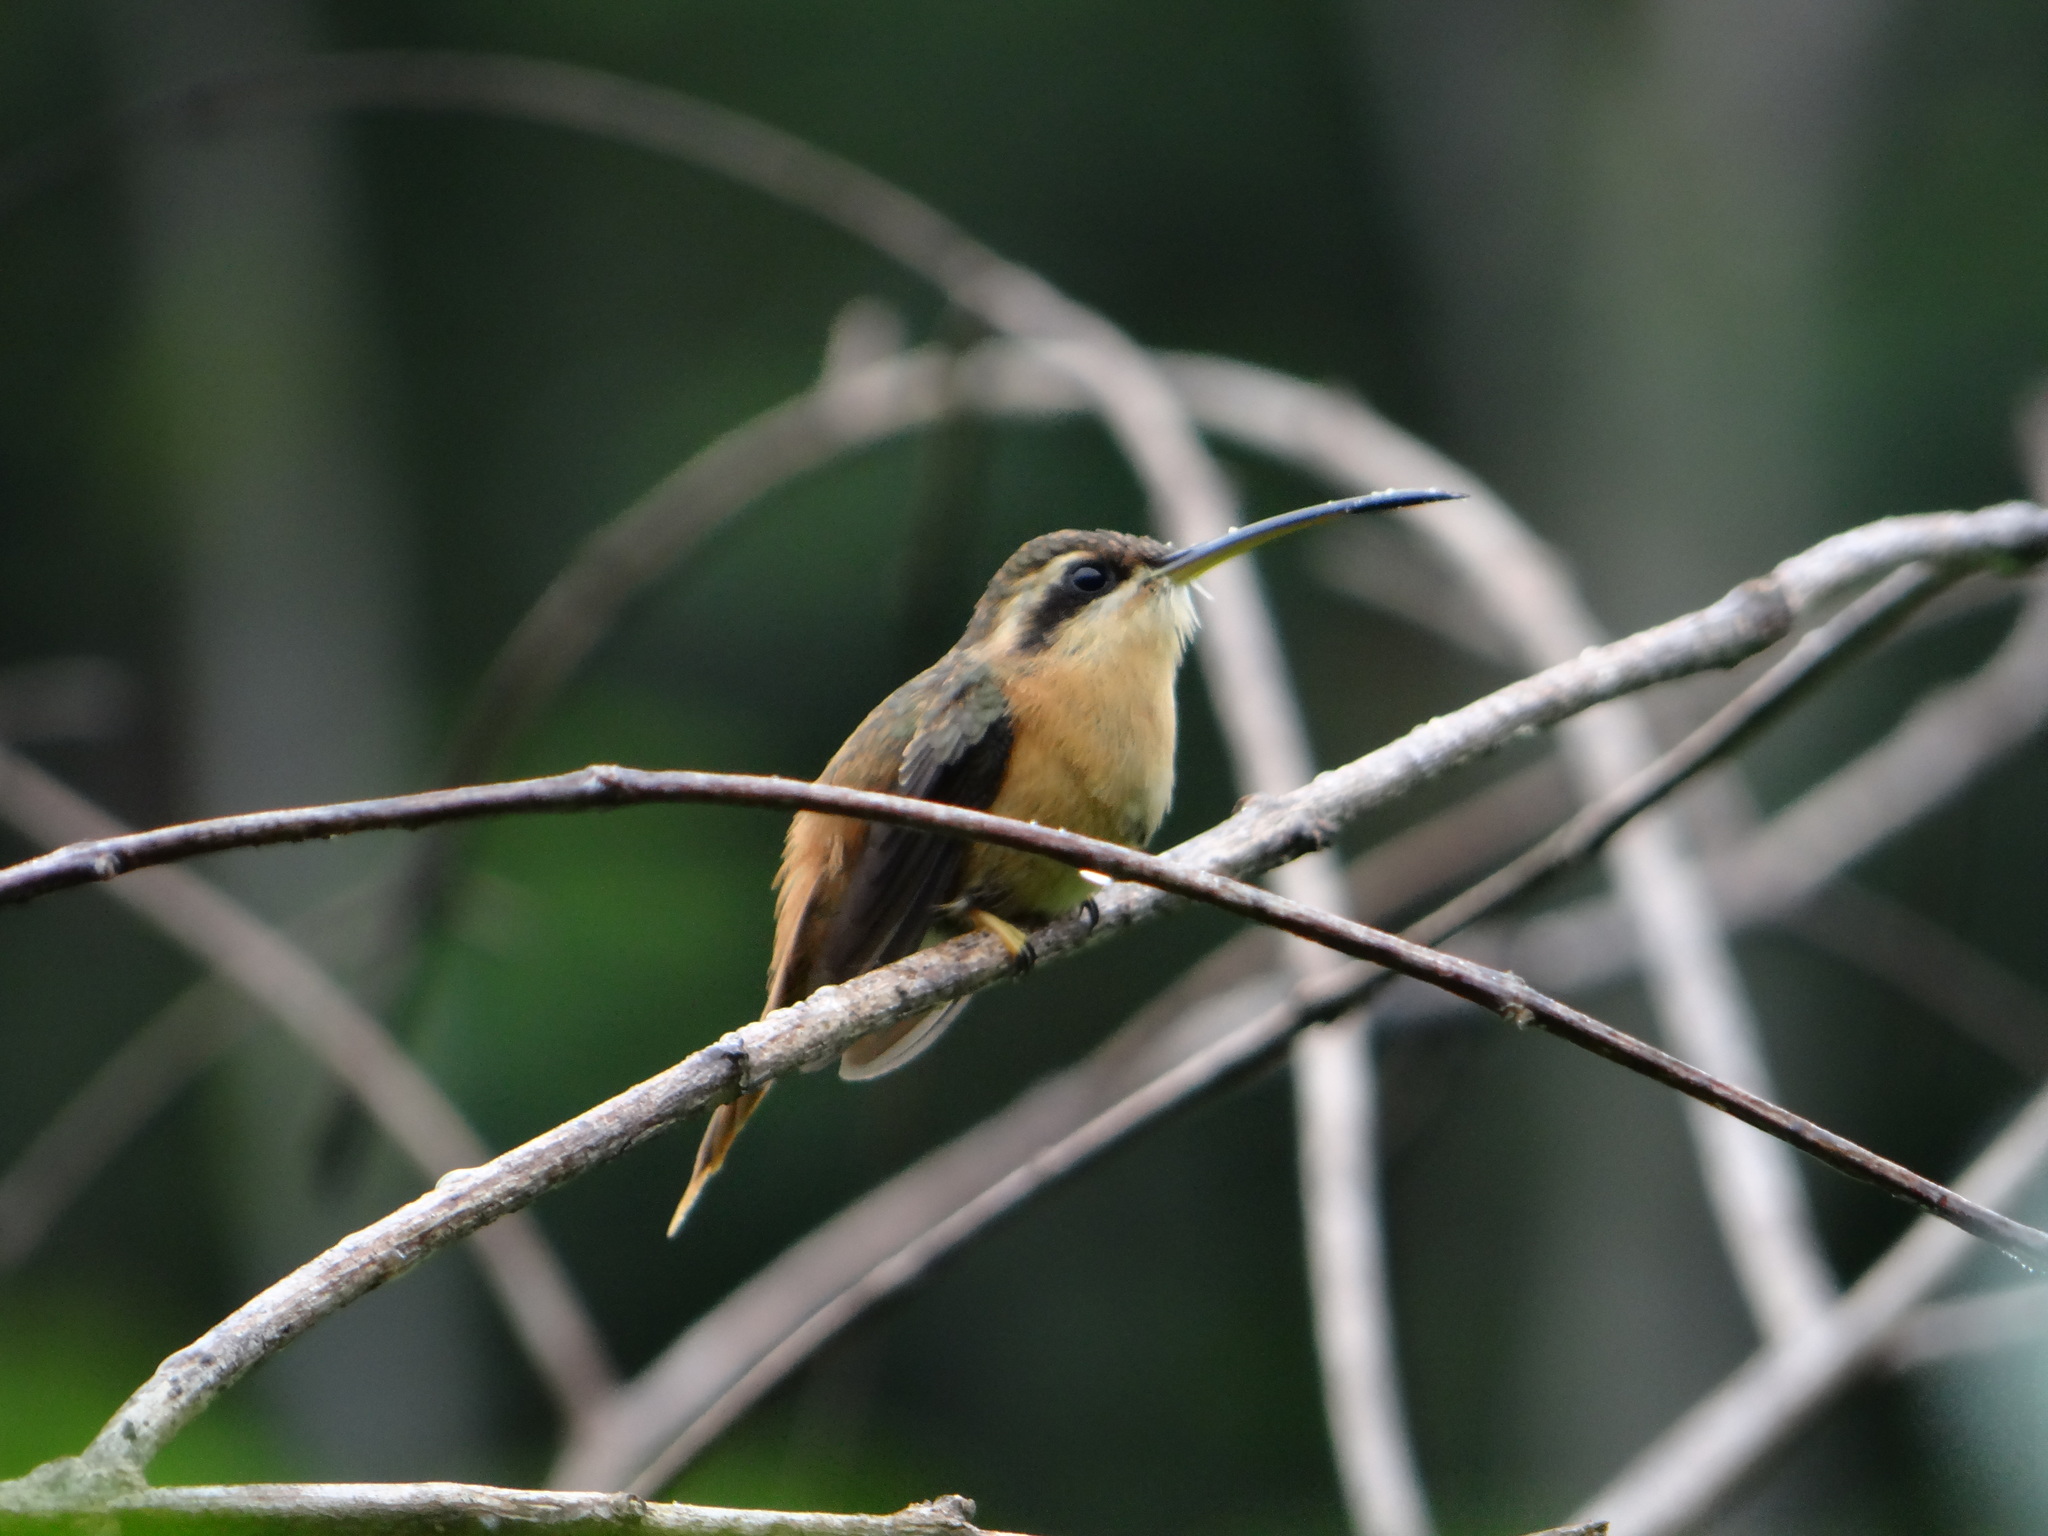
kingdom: Animalia
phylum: Chordata
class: Aves
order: Apodiformes
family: Trochilidae
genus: Phaethornis
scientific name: Phaethornis ruber
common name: Reddish hermit
